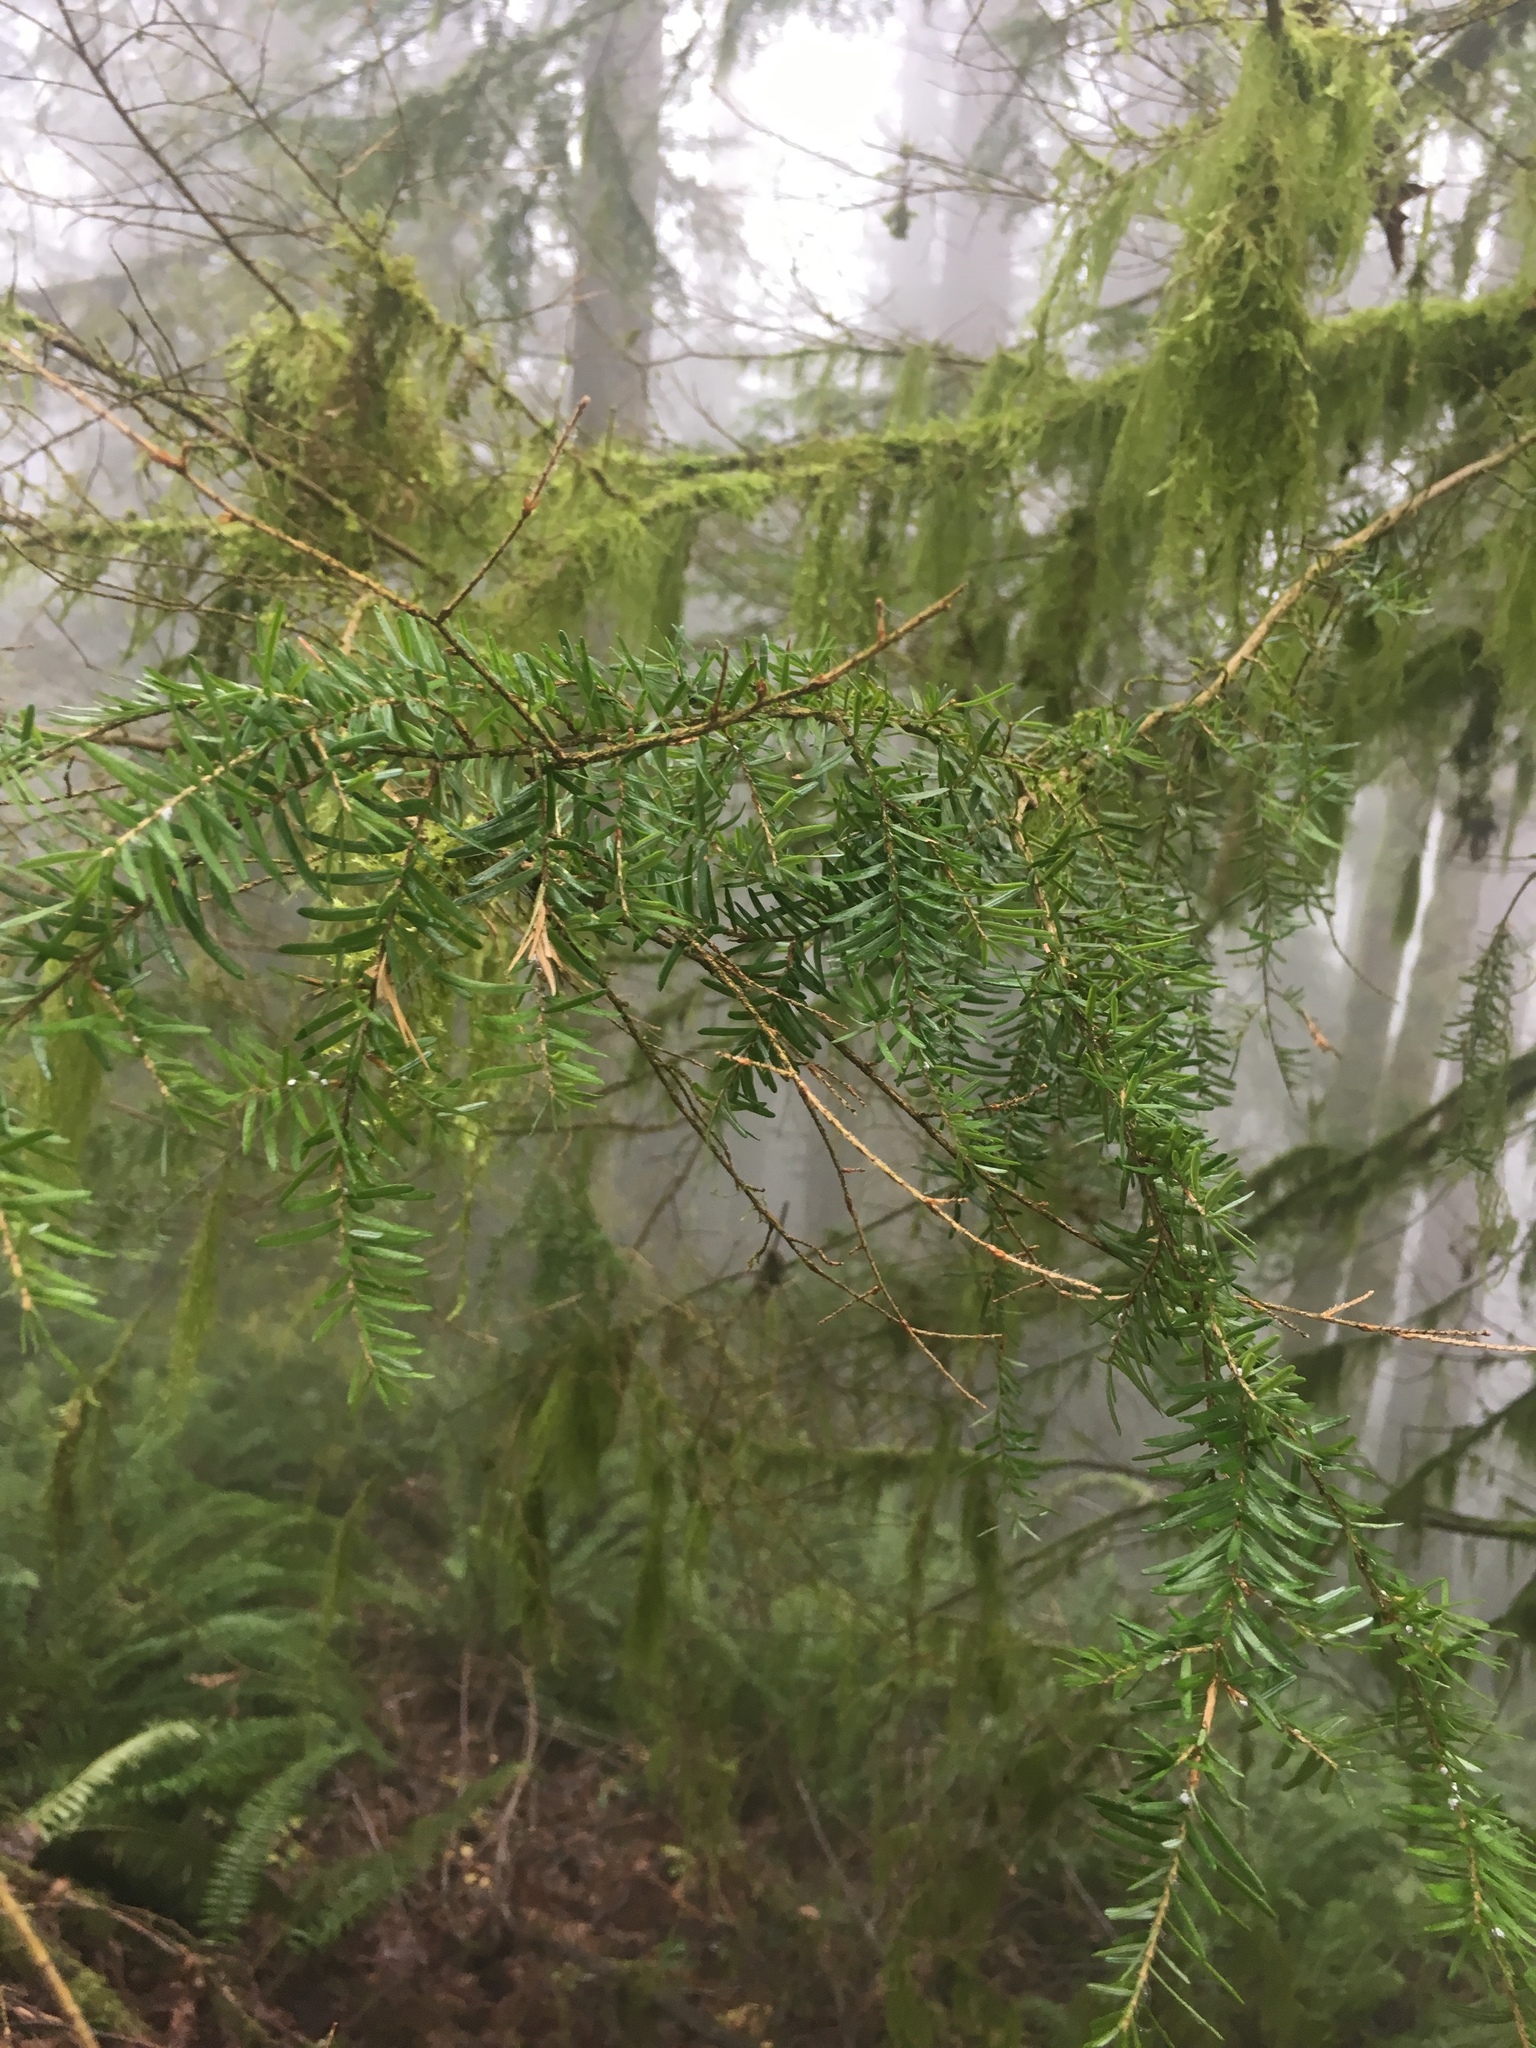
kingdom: Plantae
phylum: Tracheophyta
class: Pinopsida
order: Pinales
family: Pinaceae
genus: Tsuga
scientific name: Tsuga heterophylla
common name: Western hemlock
